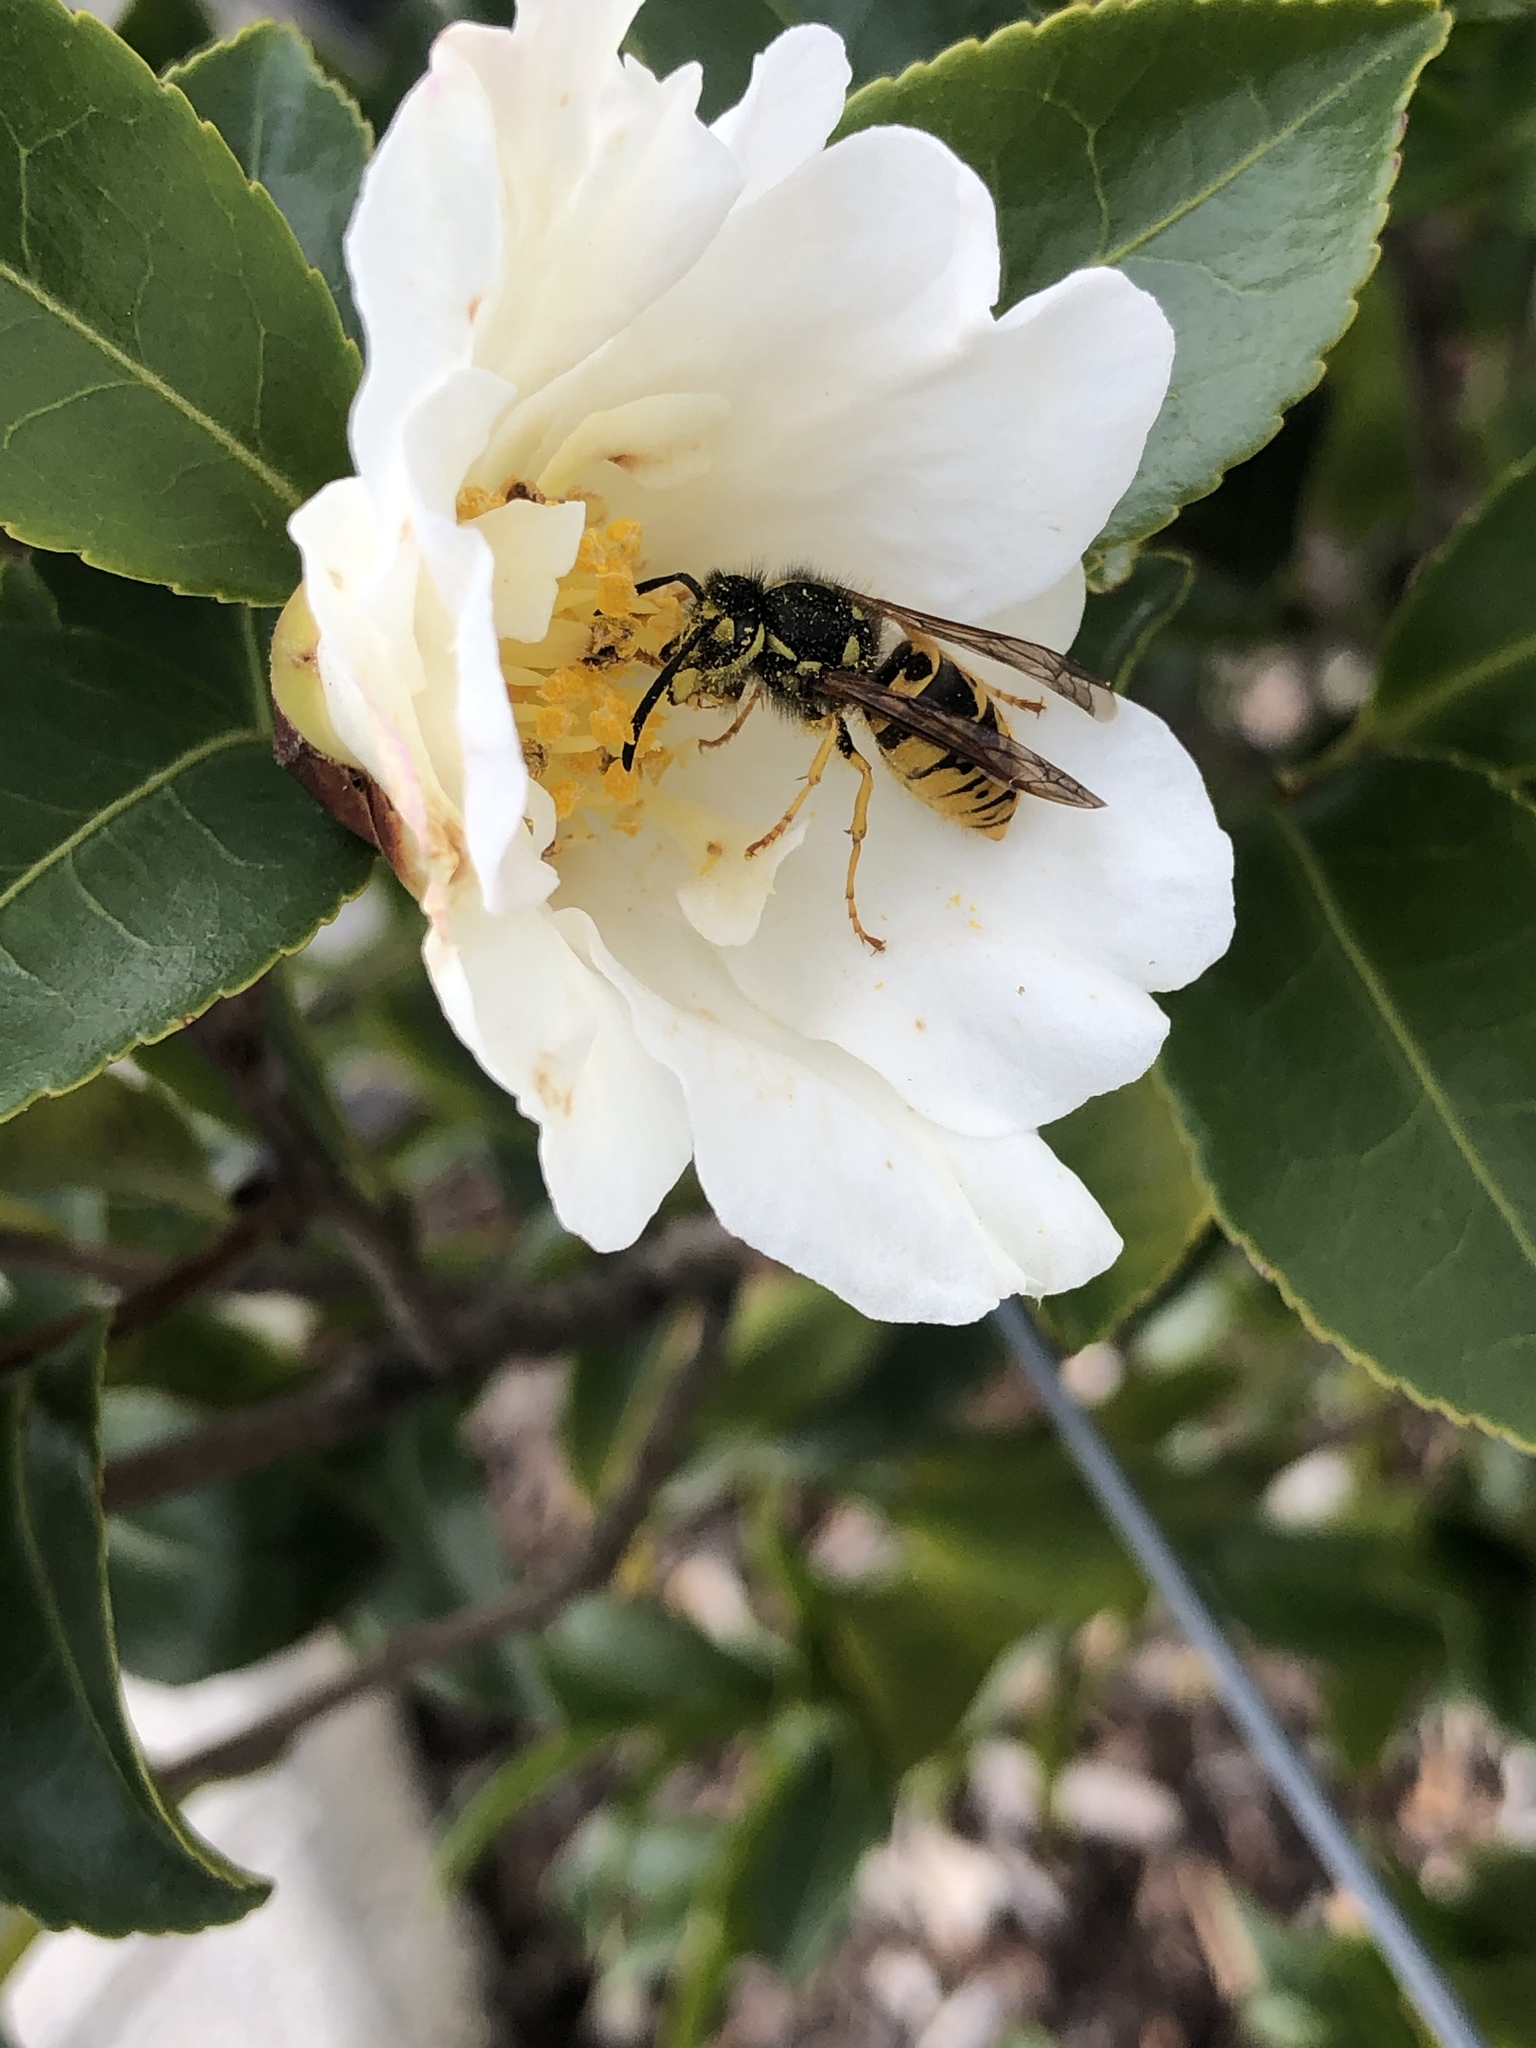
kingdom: Animalia
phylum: Arthropoda
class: Insecta
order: Hymenoptera
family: Vespidae
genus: Vespula
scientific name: Vespula germanica
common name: German wasp
